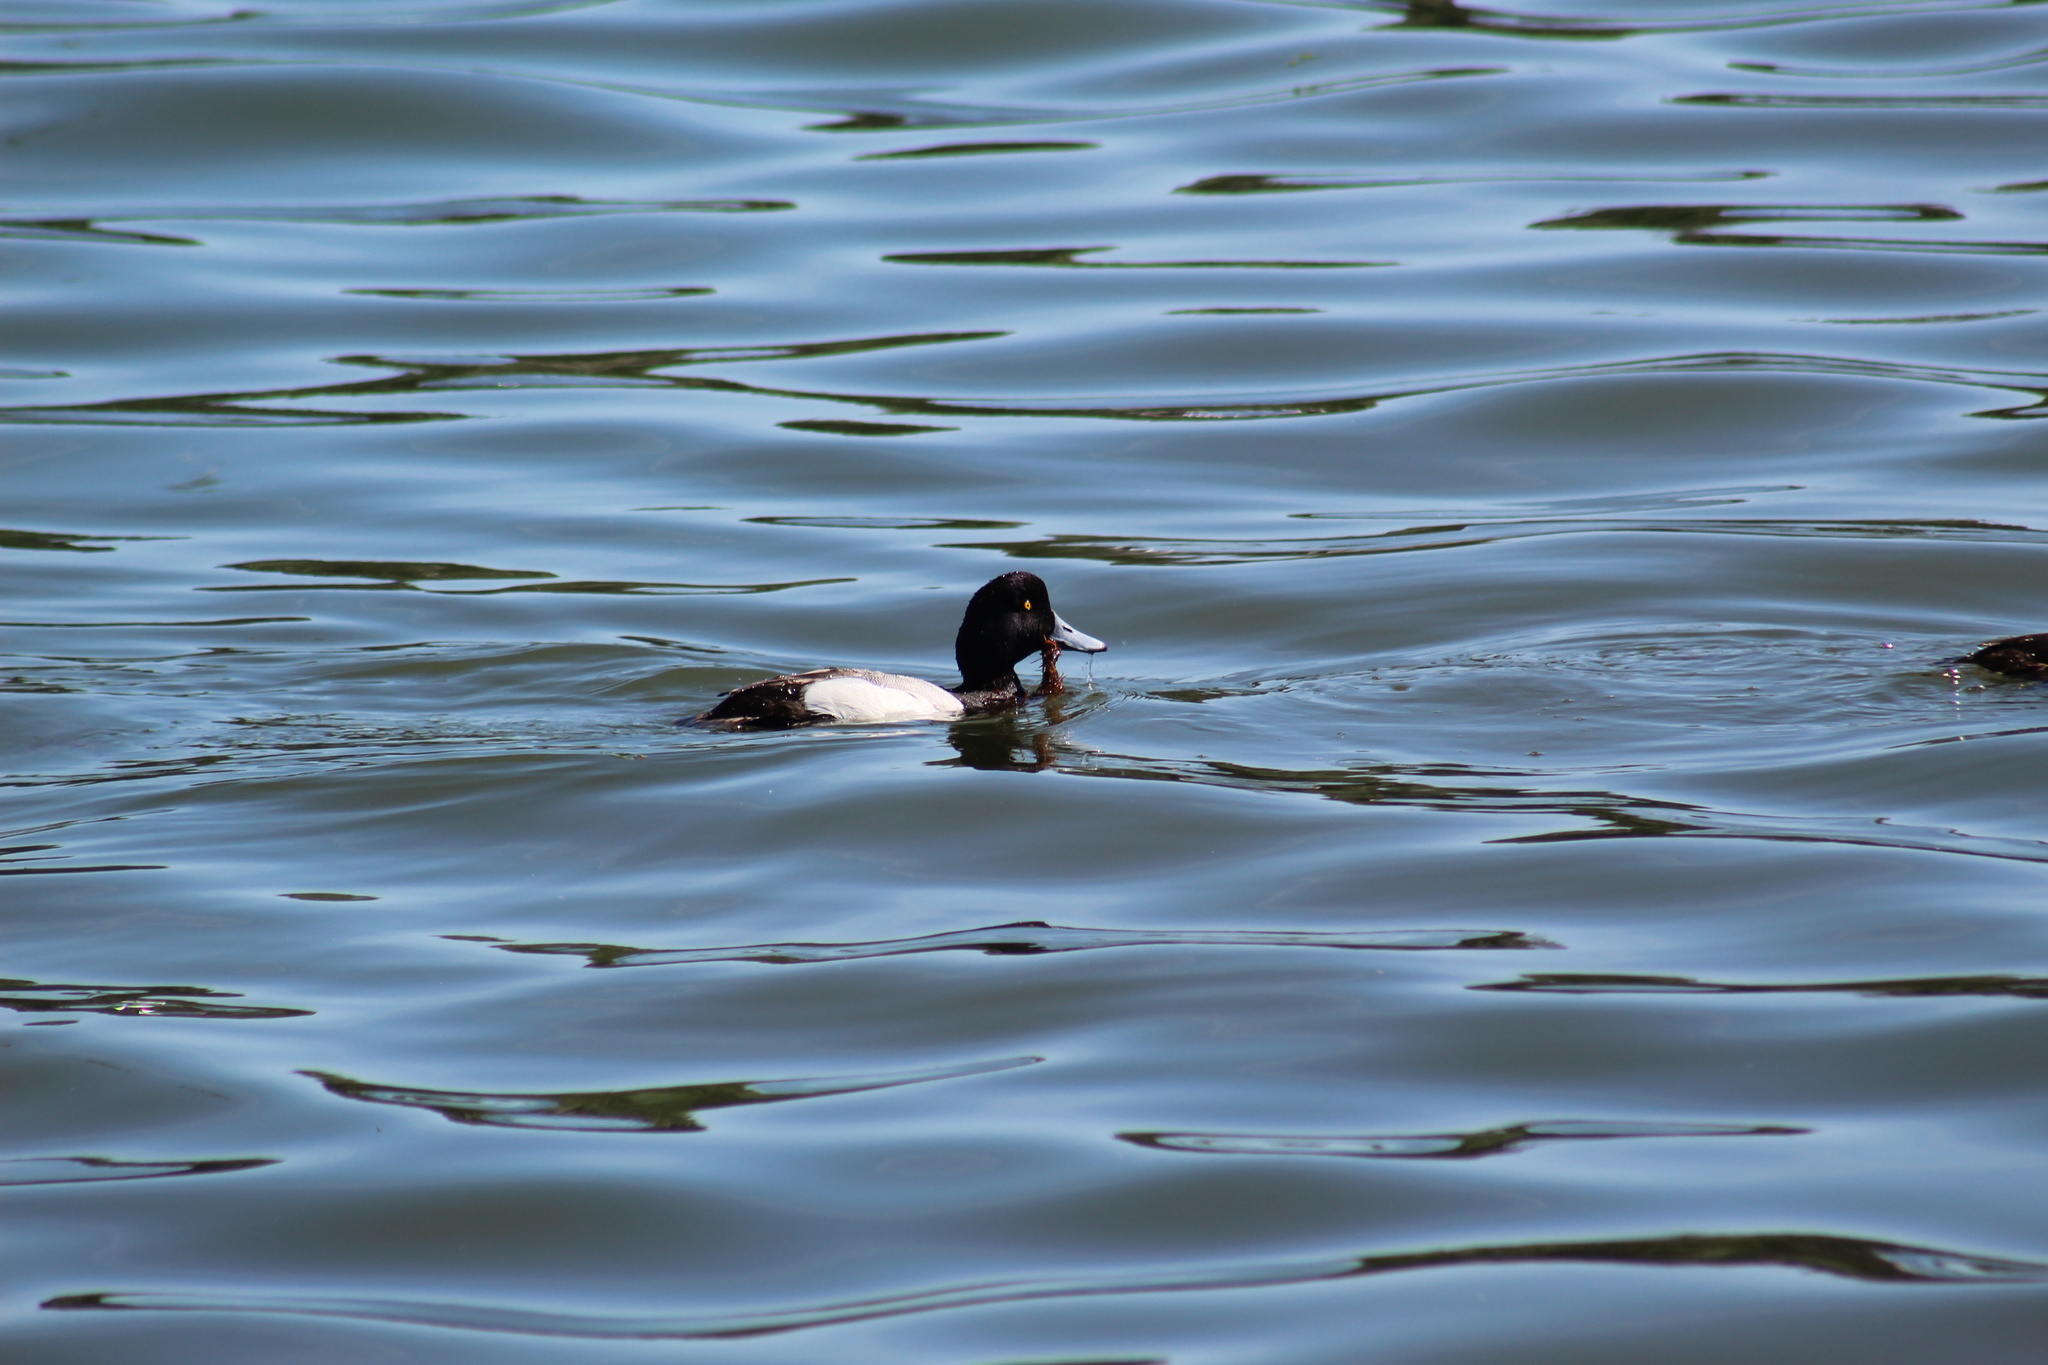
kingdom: Animalia
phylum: Chordata
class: Aves
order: Anseriformes
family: Anatidae
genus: Aythya
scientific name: Aythya affinis
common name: Lesser scaup
